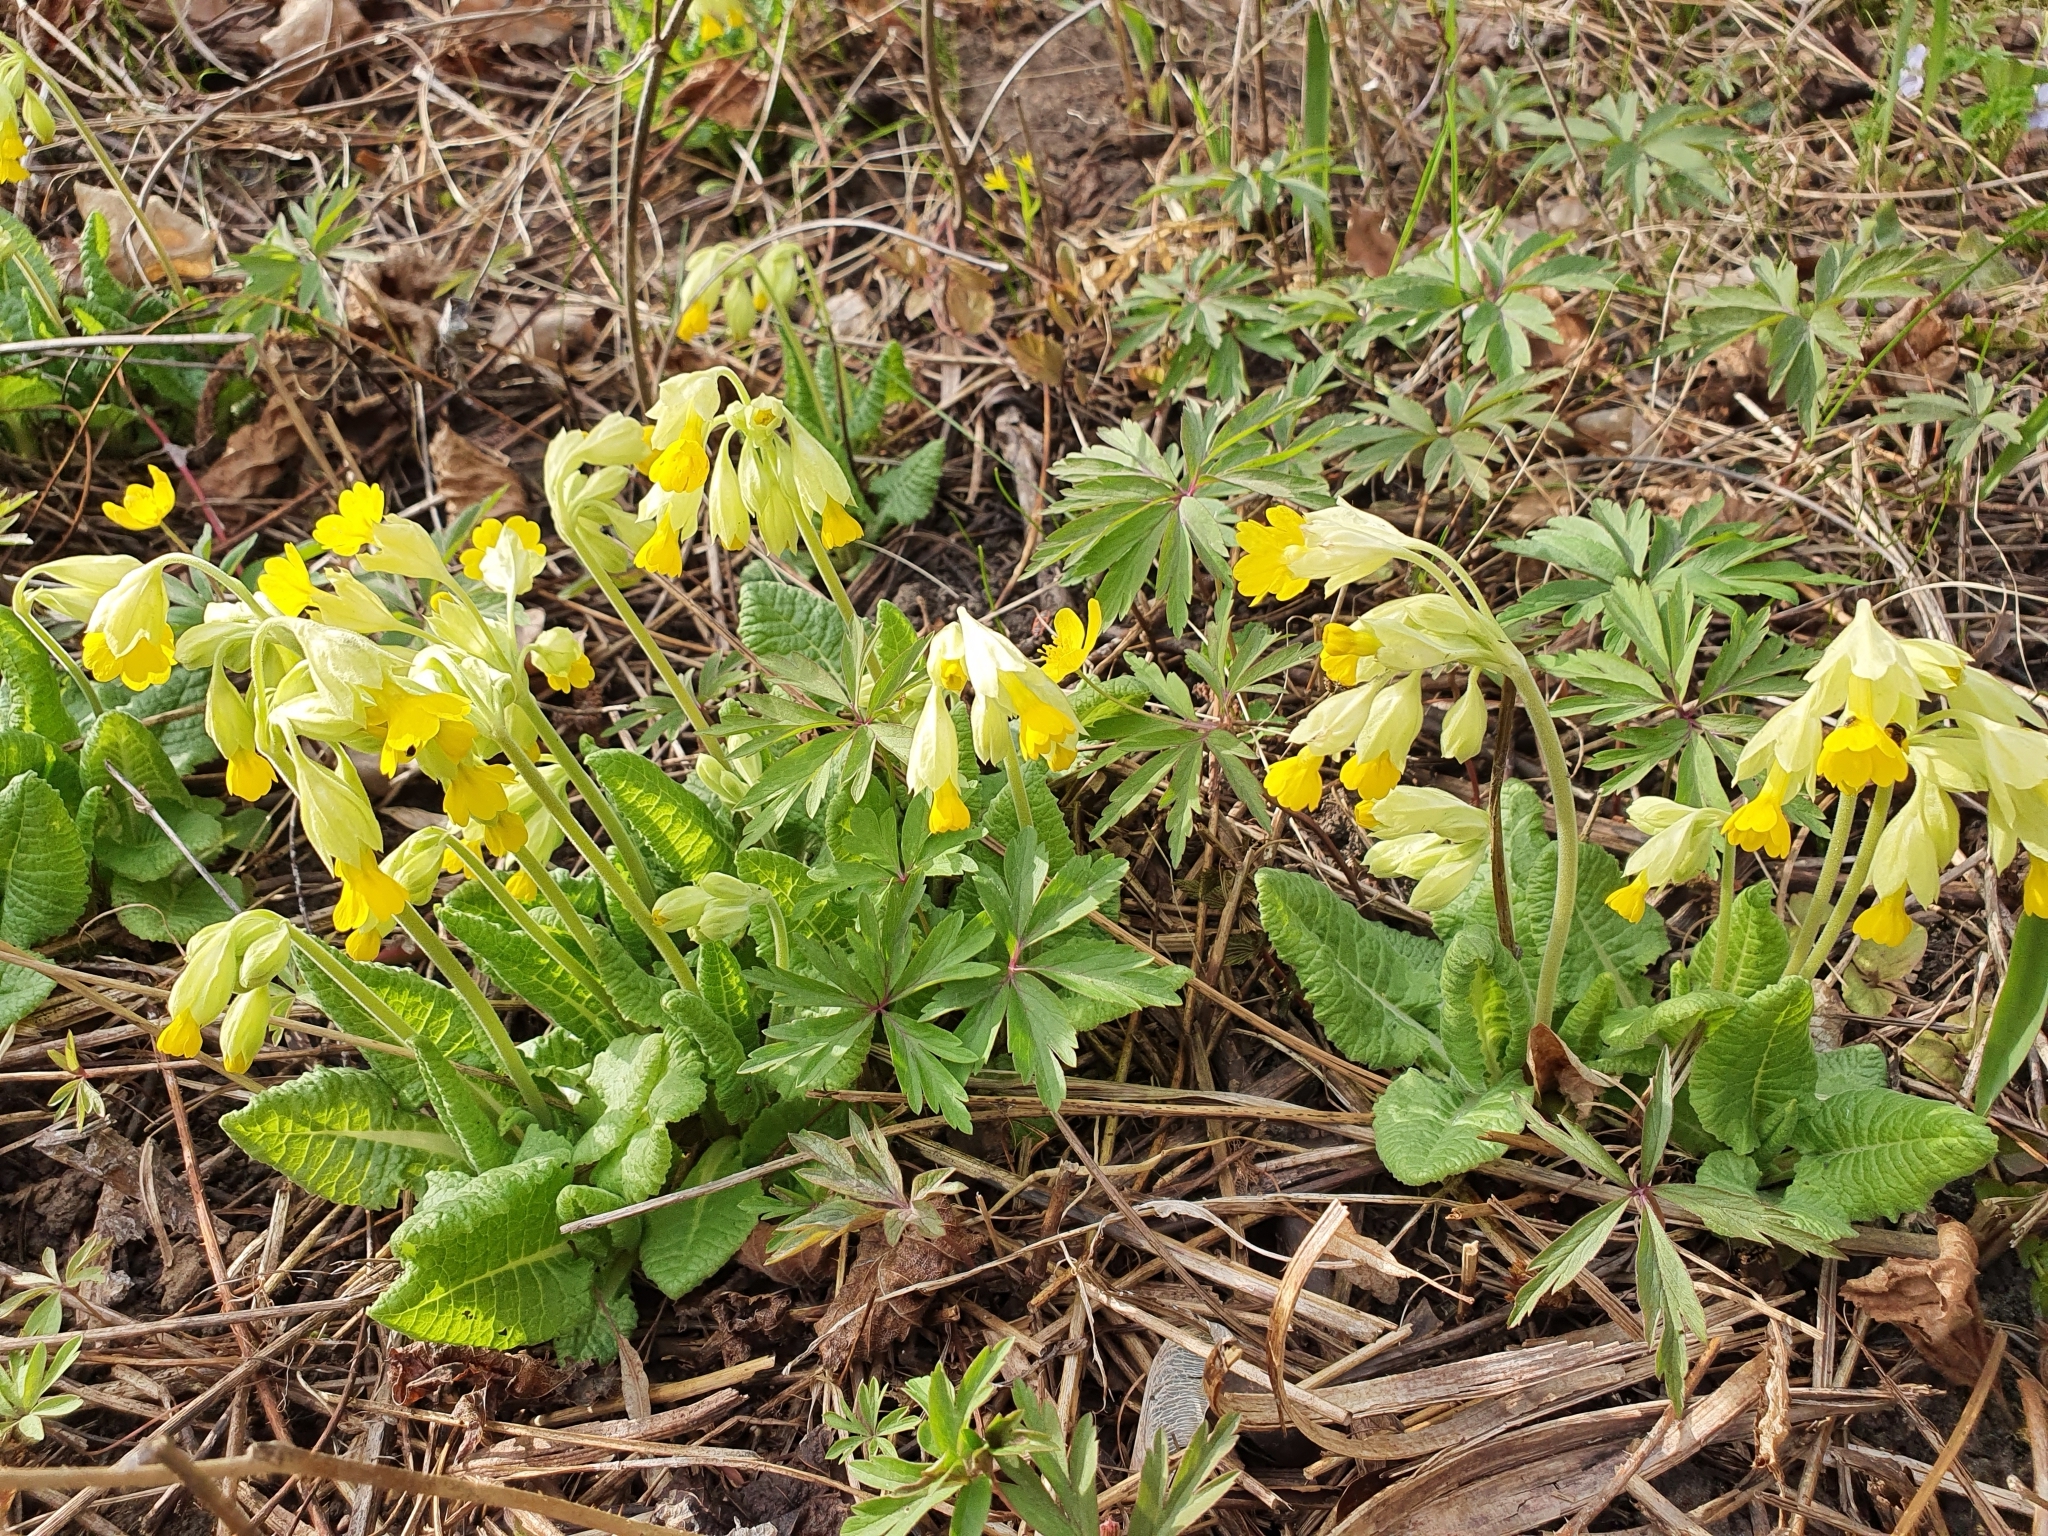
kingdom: Plantae
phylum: Tracheophyta
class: Magnoliopsida
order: Ericales
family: Primulaceae
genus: Primula
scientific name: Primula veris
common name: Cowslip
